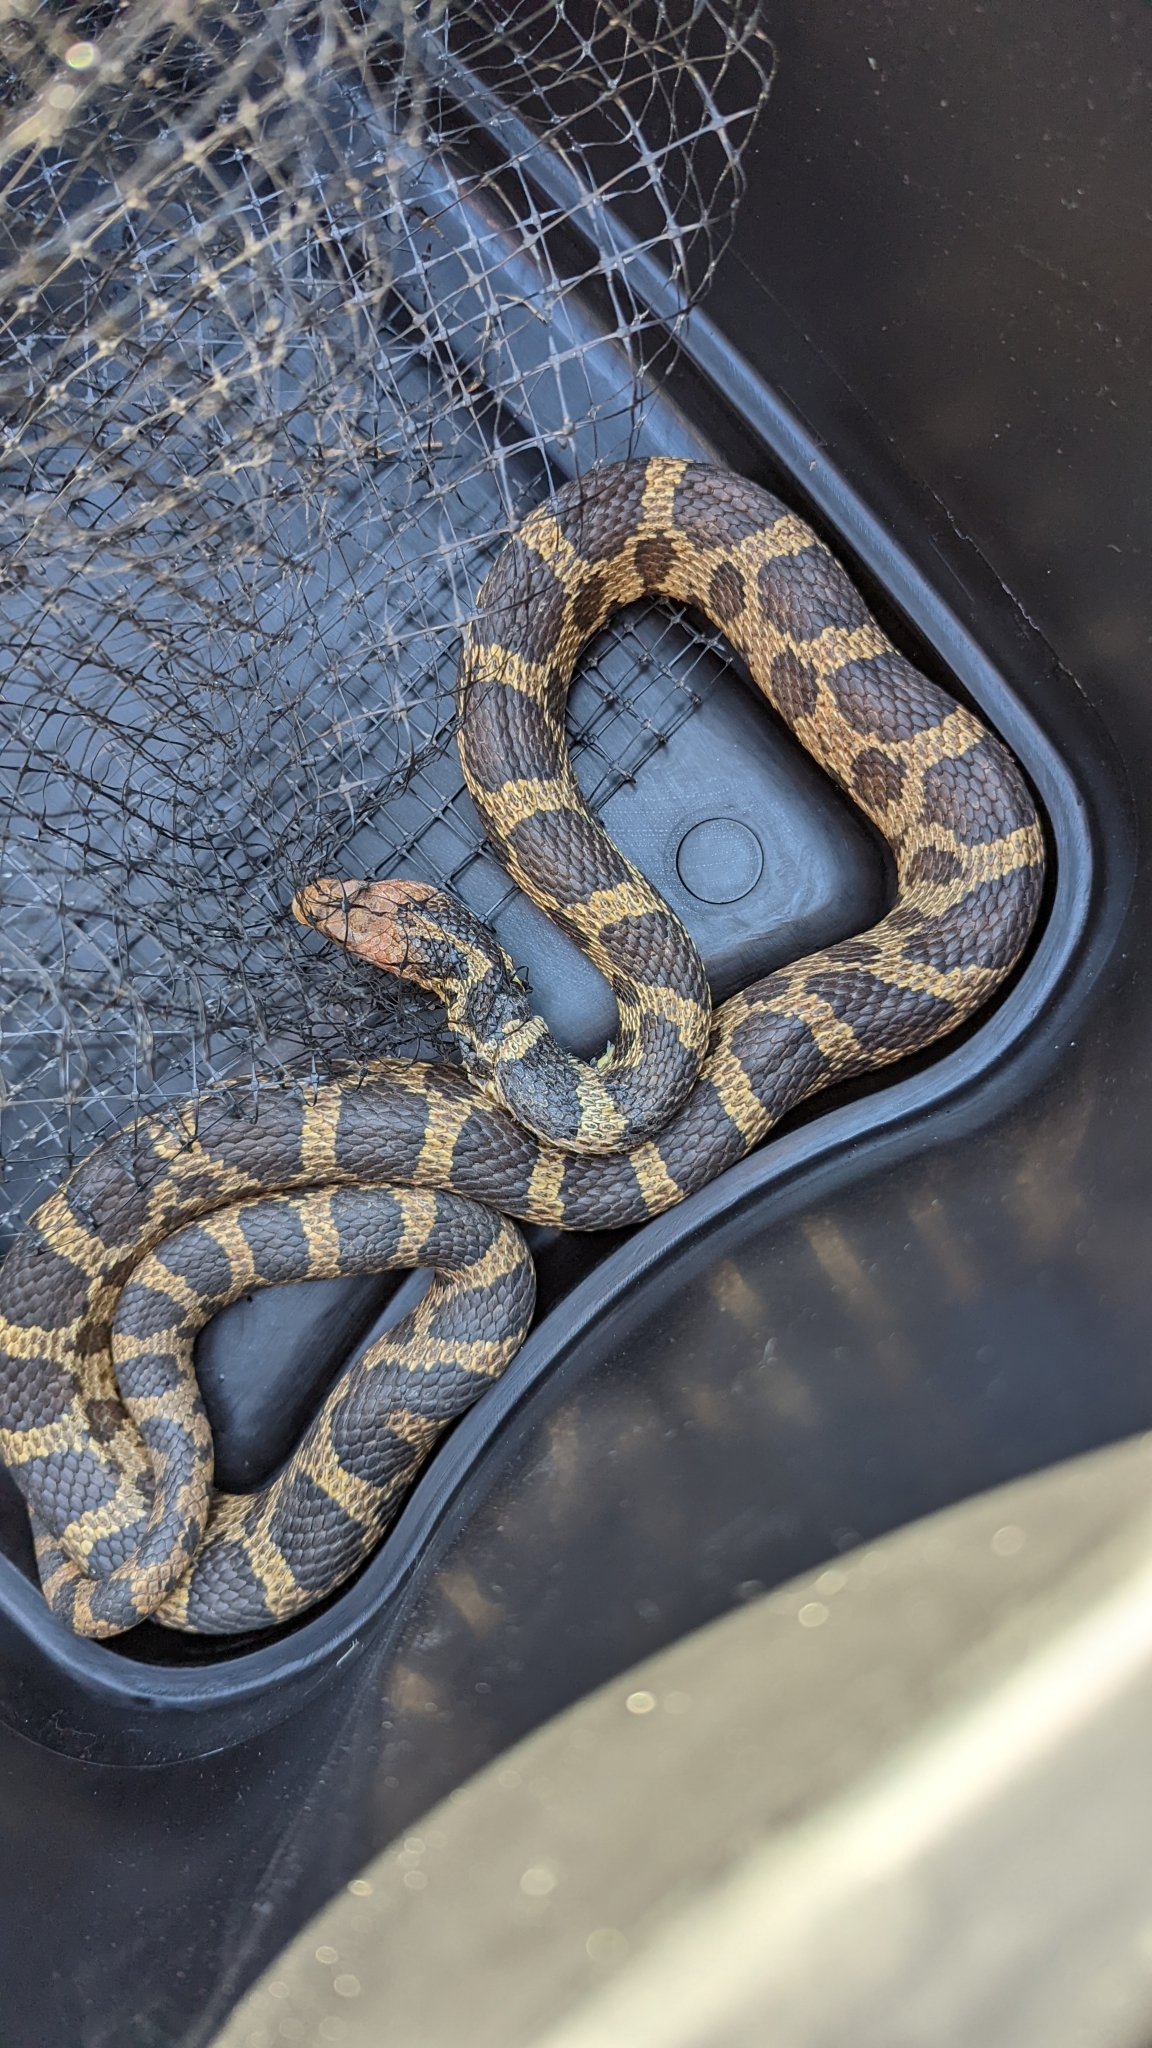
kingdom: Animalia
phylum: Chordata
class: Squamata
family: Colubridae
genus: Pantherophis
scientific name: Pantherophis vulpinus
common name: Eastern fox snake
